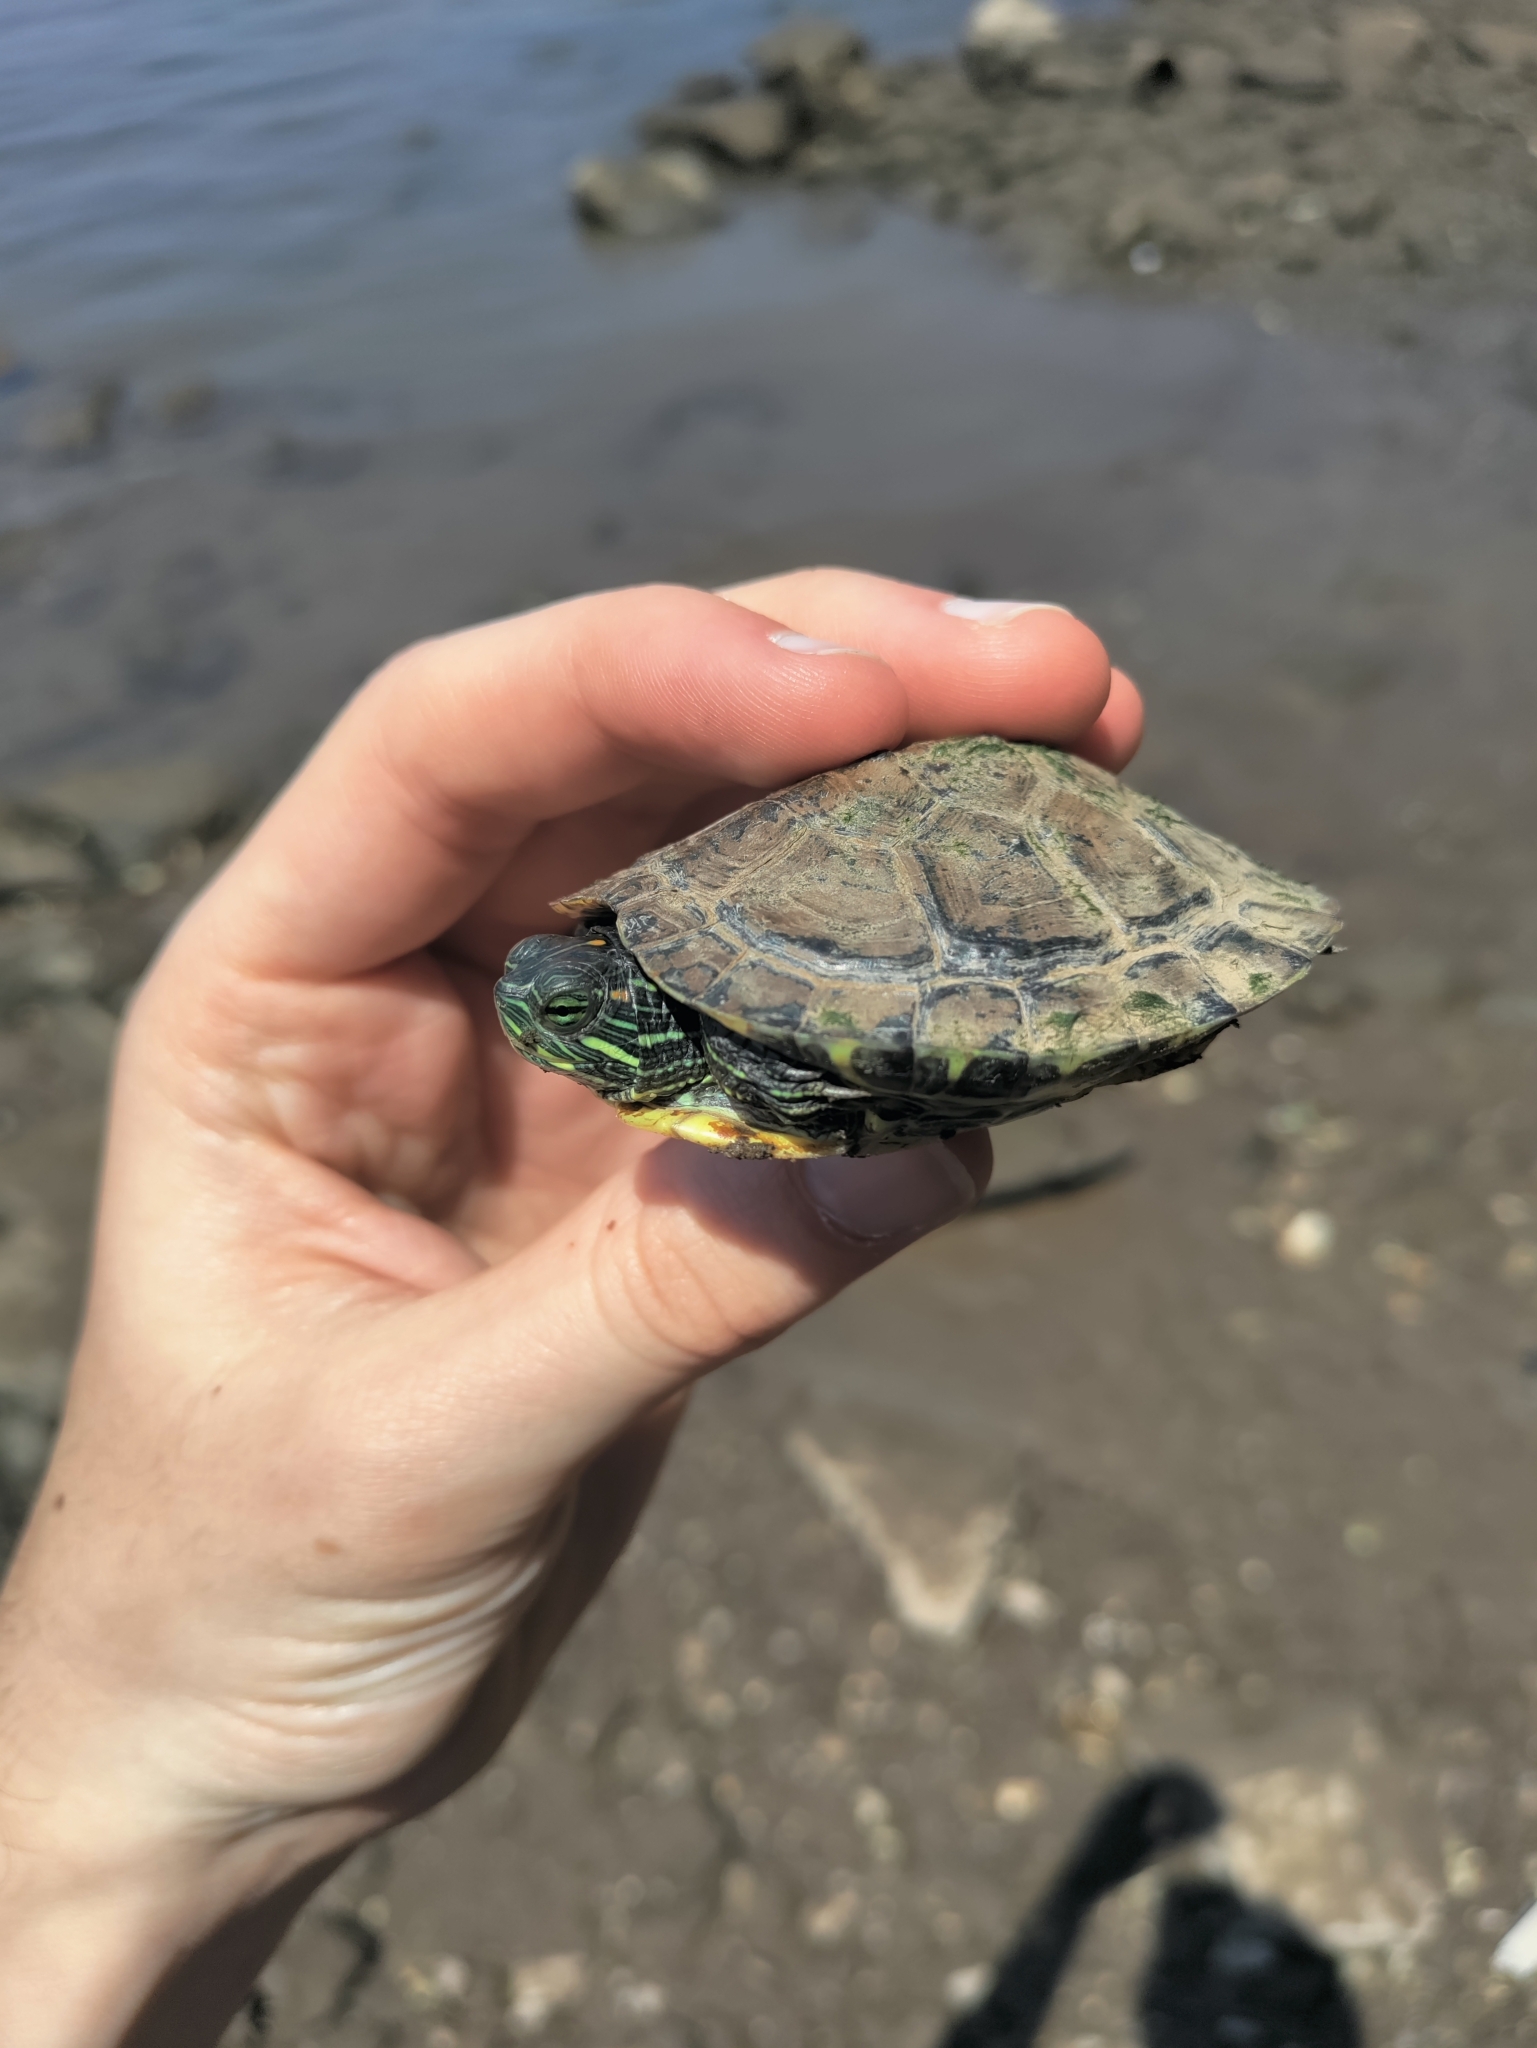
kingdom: Animalia
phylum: Chordata
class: Testudines
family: Emydidae
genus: Trachemys
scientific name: Trachemys scripta
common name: Slider
